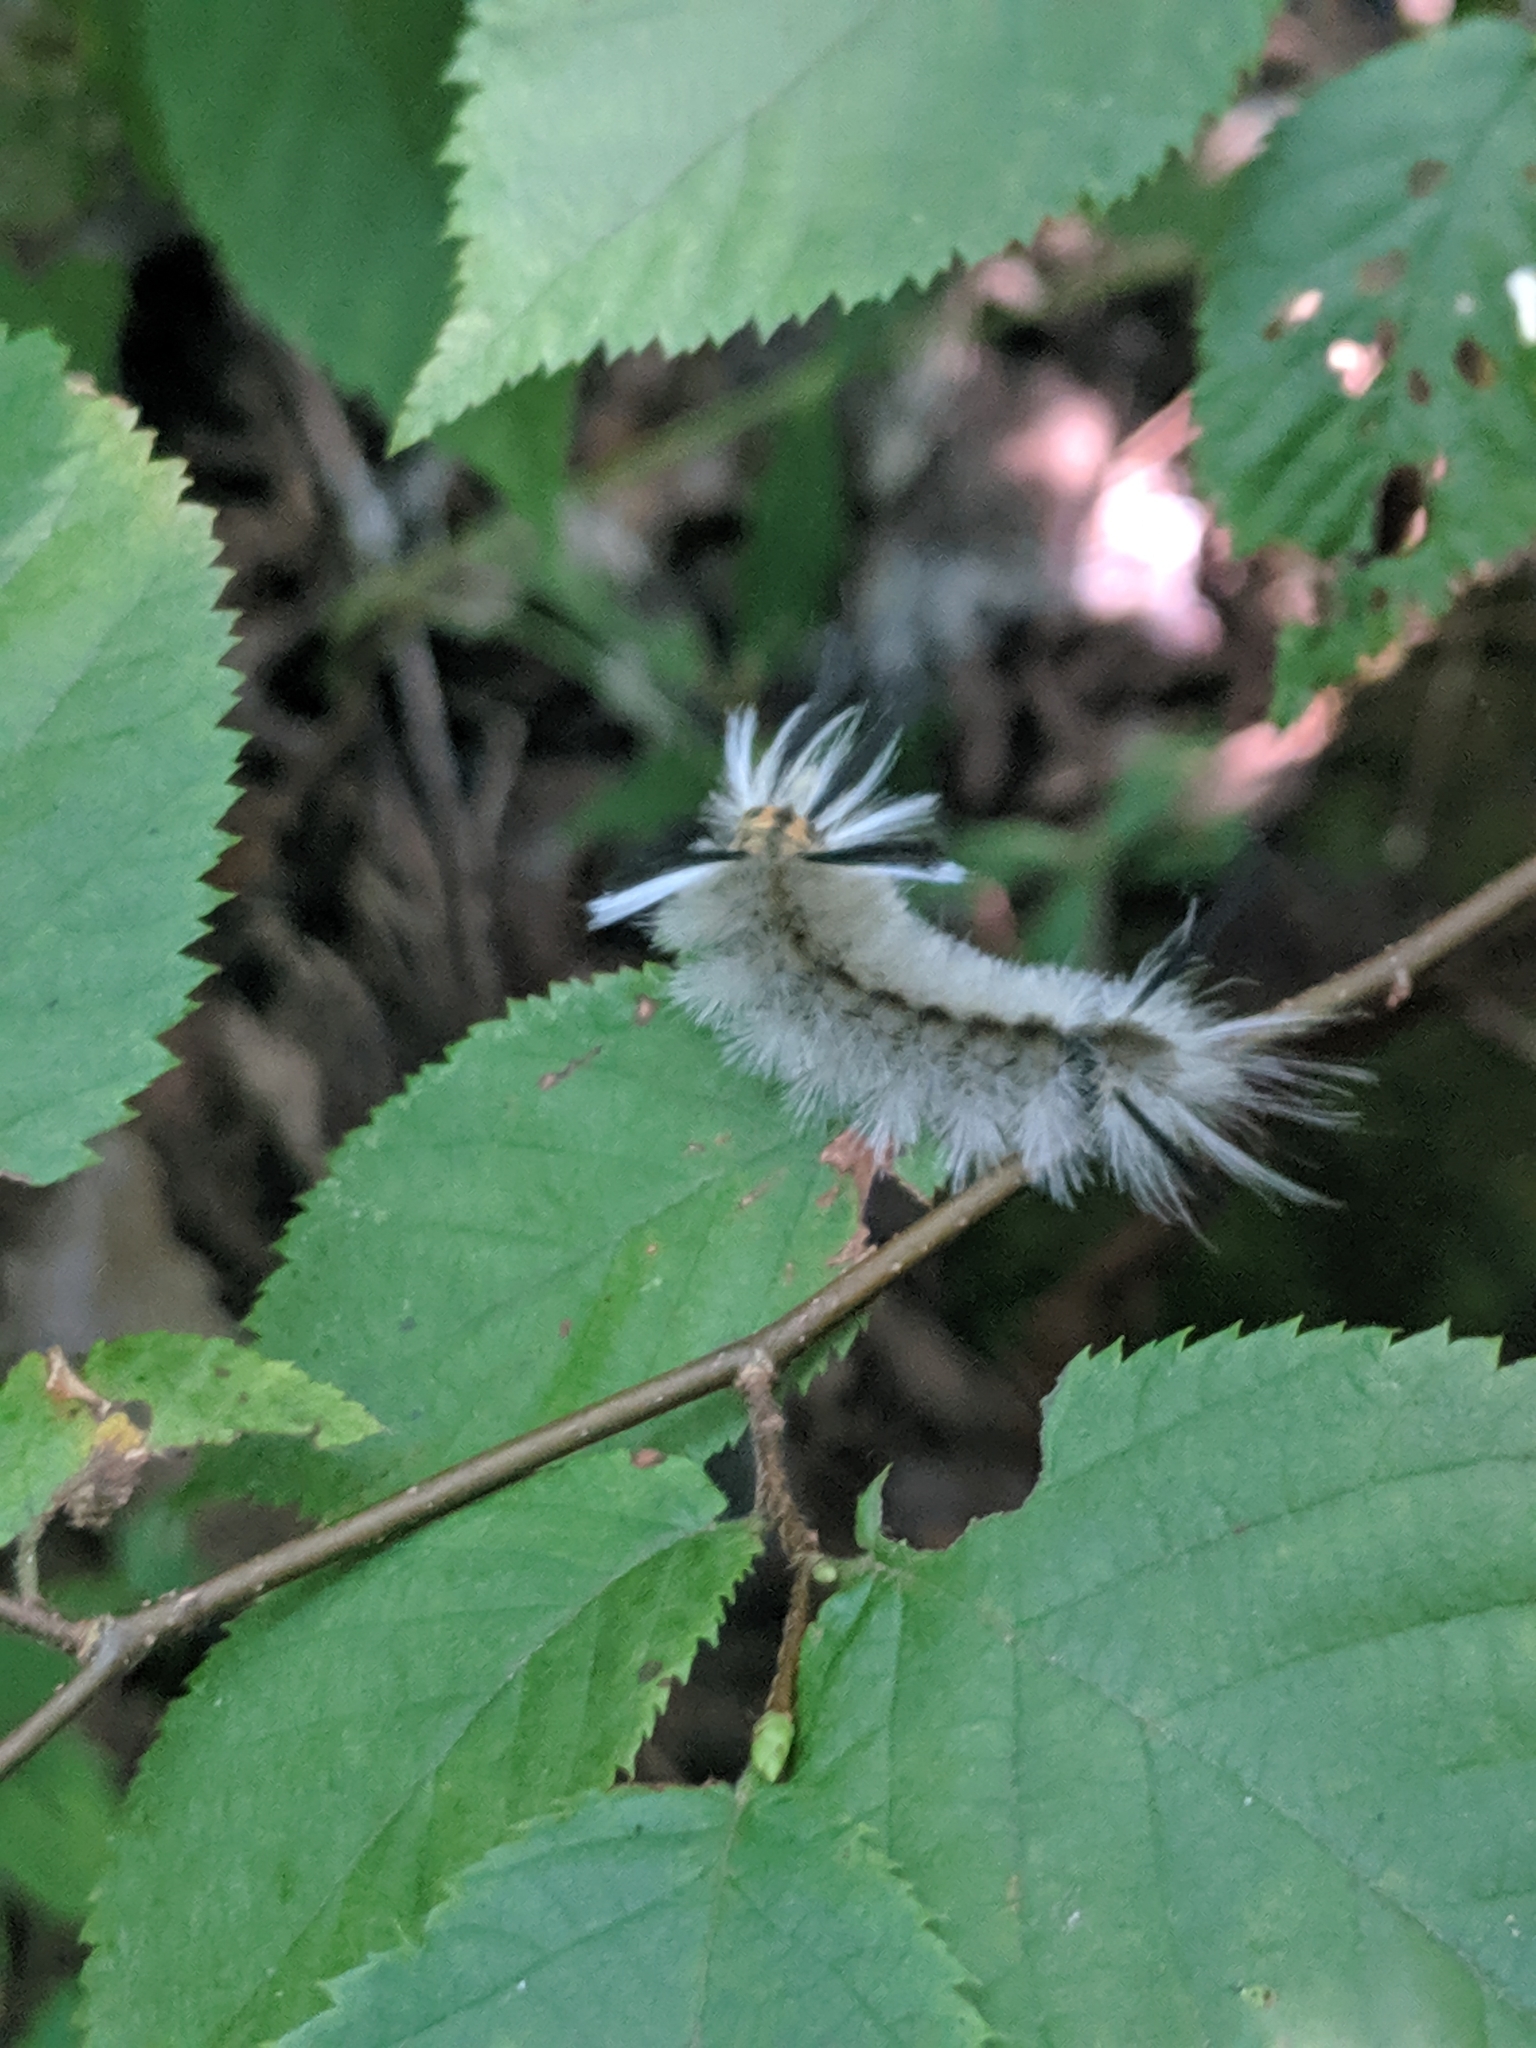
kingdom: Animalia
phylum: Arthropoda
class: Insecta
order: Lepidoptera
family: Erebidae
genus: Halysidota
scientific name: Halysidota tessellaris
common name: Banded tussock moth
